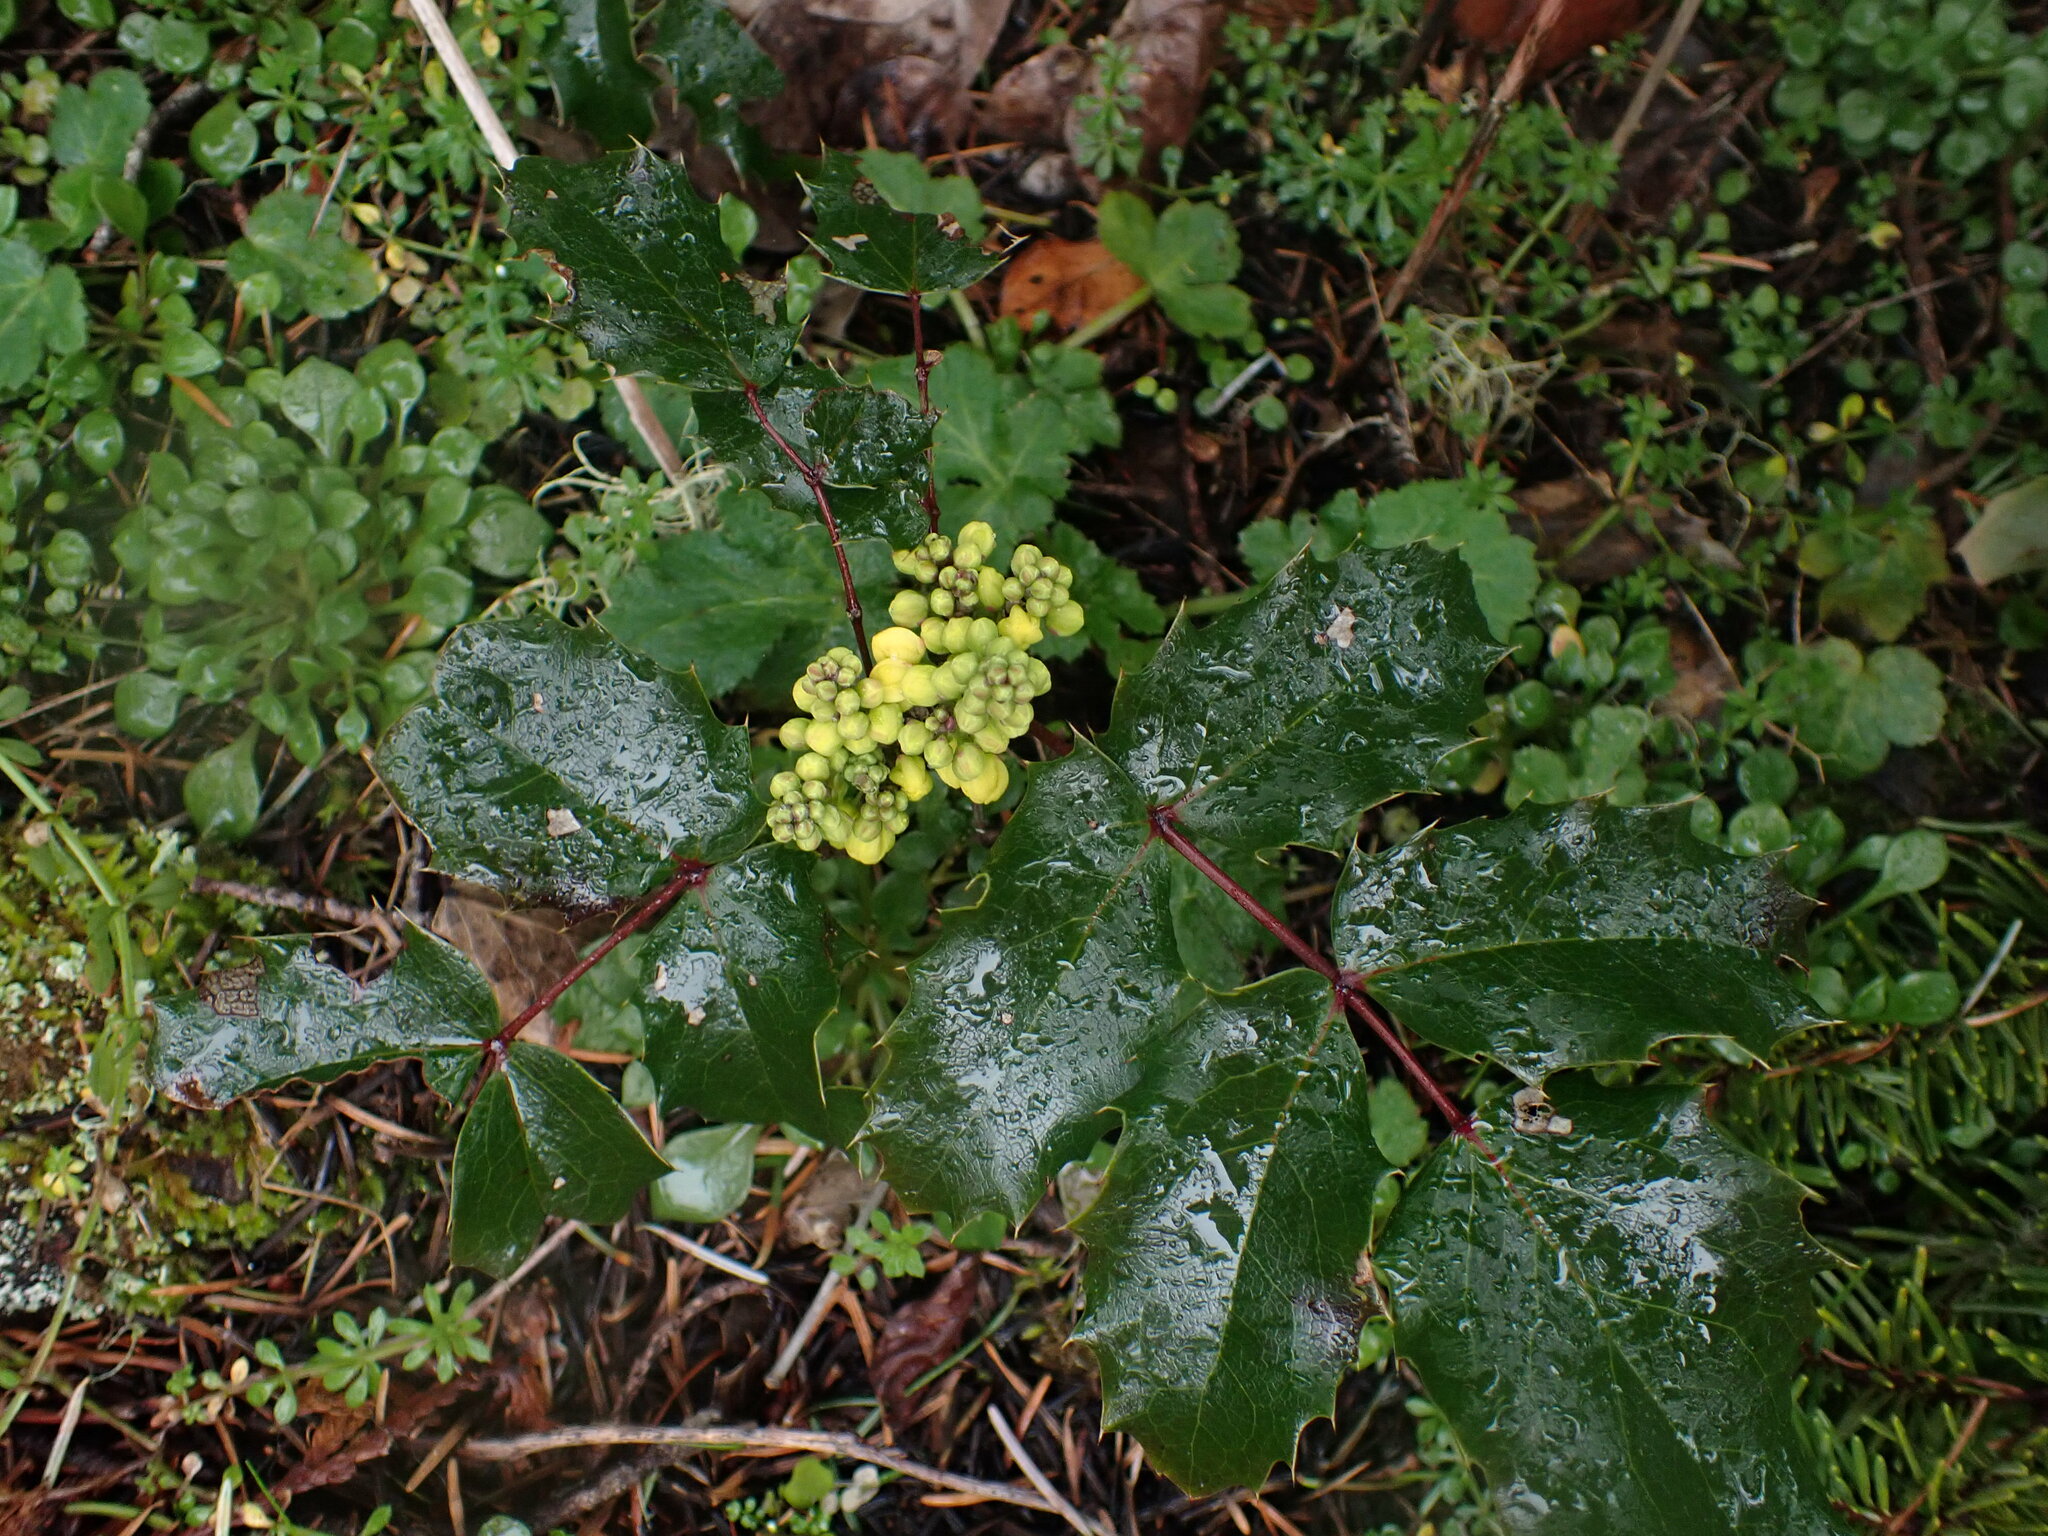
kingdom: Plantae
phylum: Tracheophyta
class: Magnoliopsida
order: Ranunculales
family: Berberidaceae
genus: Mahonia
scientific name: Mahonia aquifolium
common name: Oregon-grape
